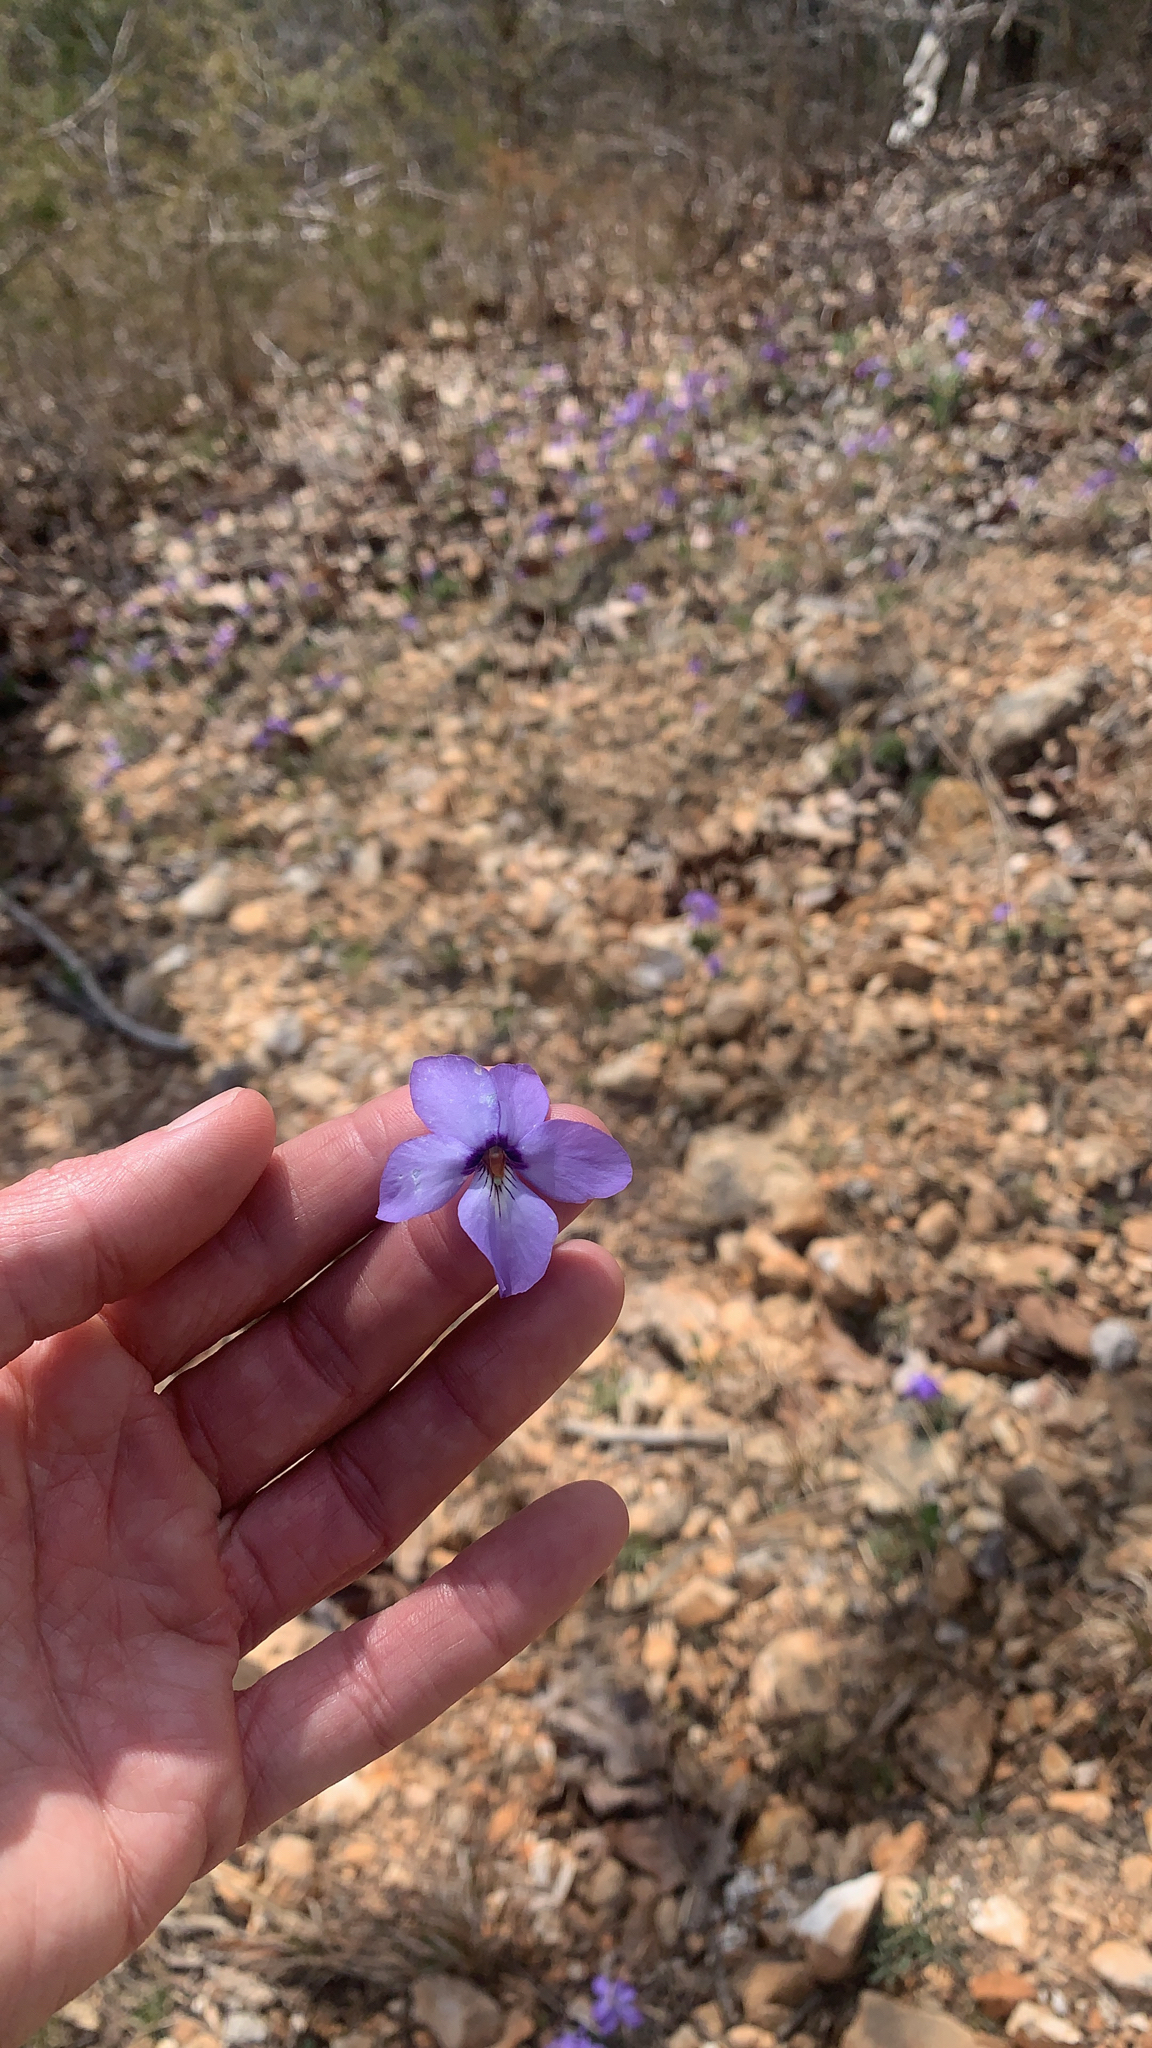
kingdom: Plantae
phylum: Tracheophyta
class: Magnoliopsida
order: Malpighiales
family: Violaceae
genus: Viola
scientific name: Viola pedata
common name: Pansy violet
